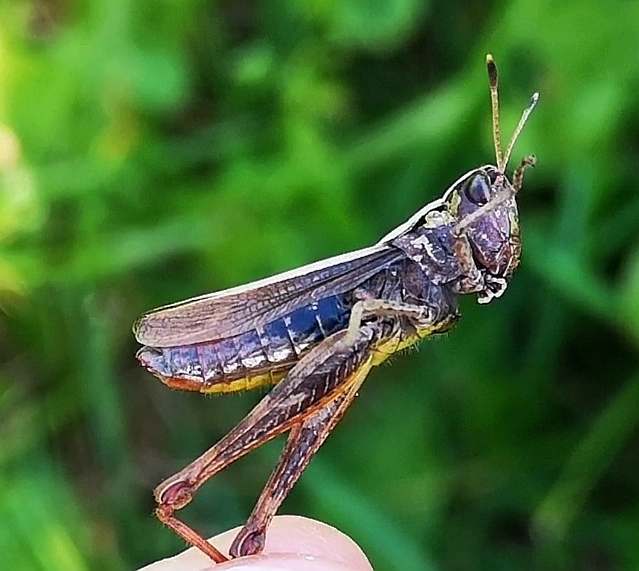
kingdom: Animalia
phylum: Arthropoda
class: Insecta
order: Orthoptera
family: Acrididae
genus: Gomphocerippus
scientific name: Gomphocerippus rufus
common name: Rufous grasshopper
